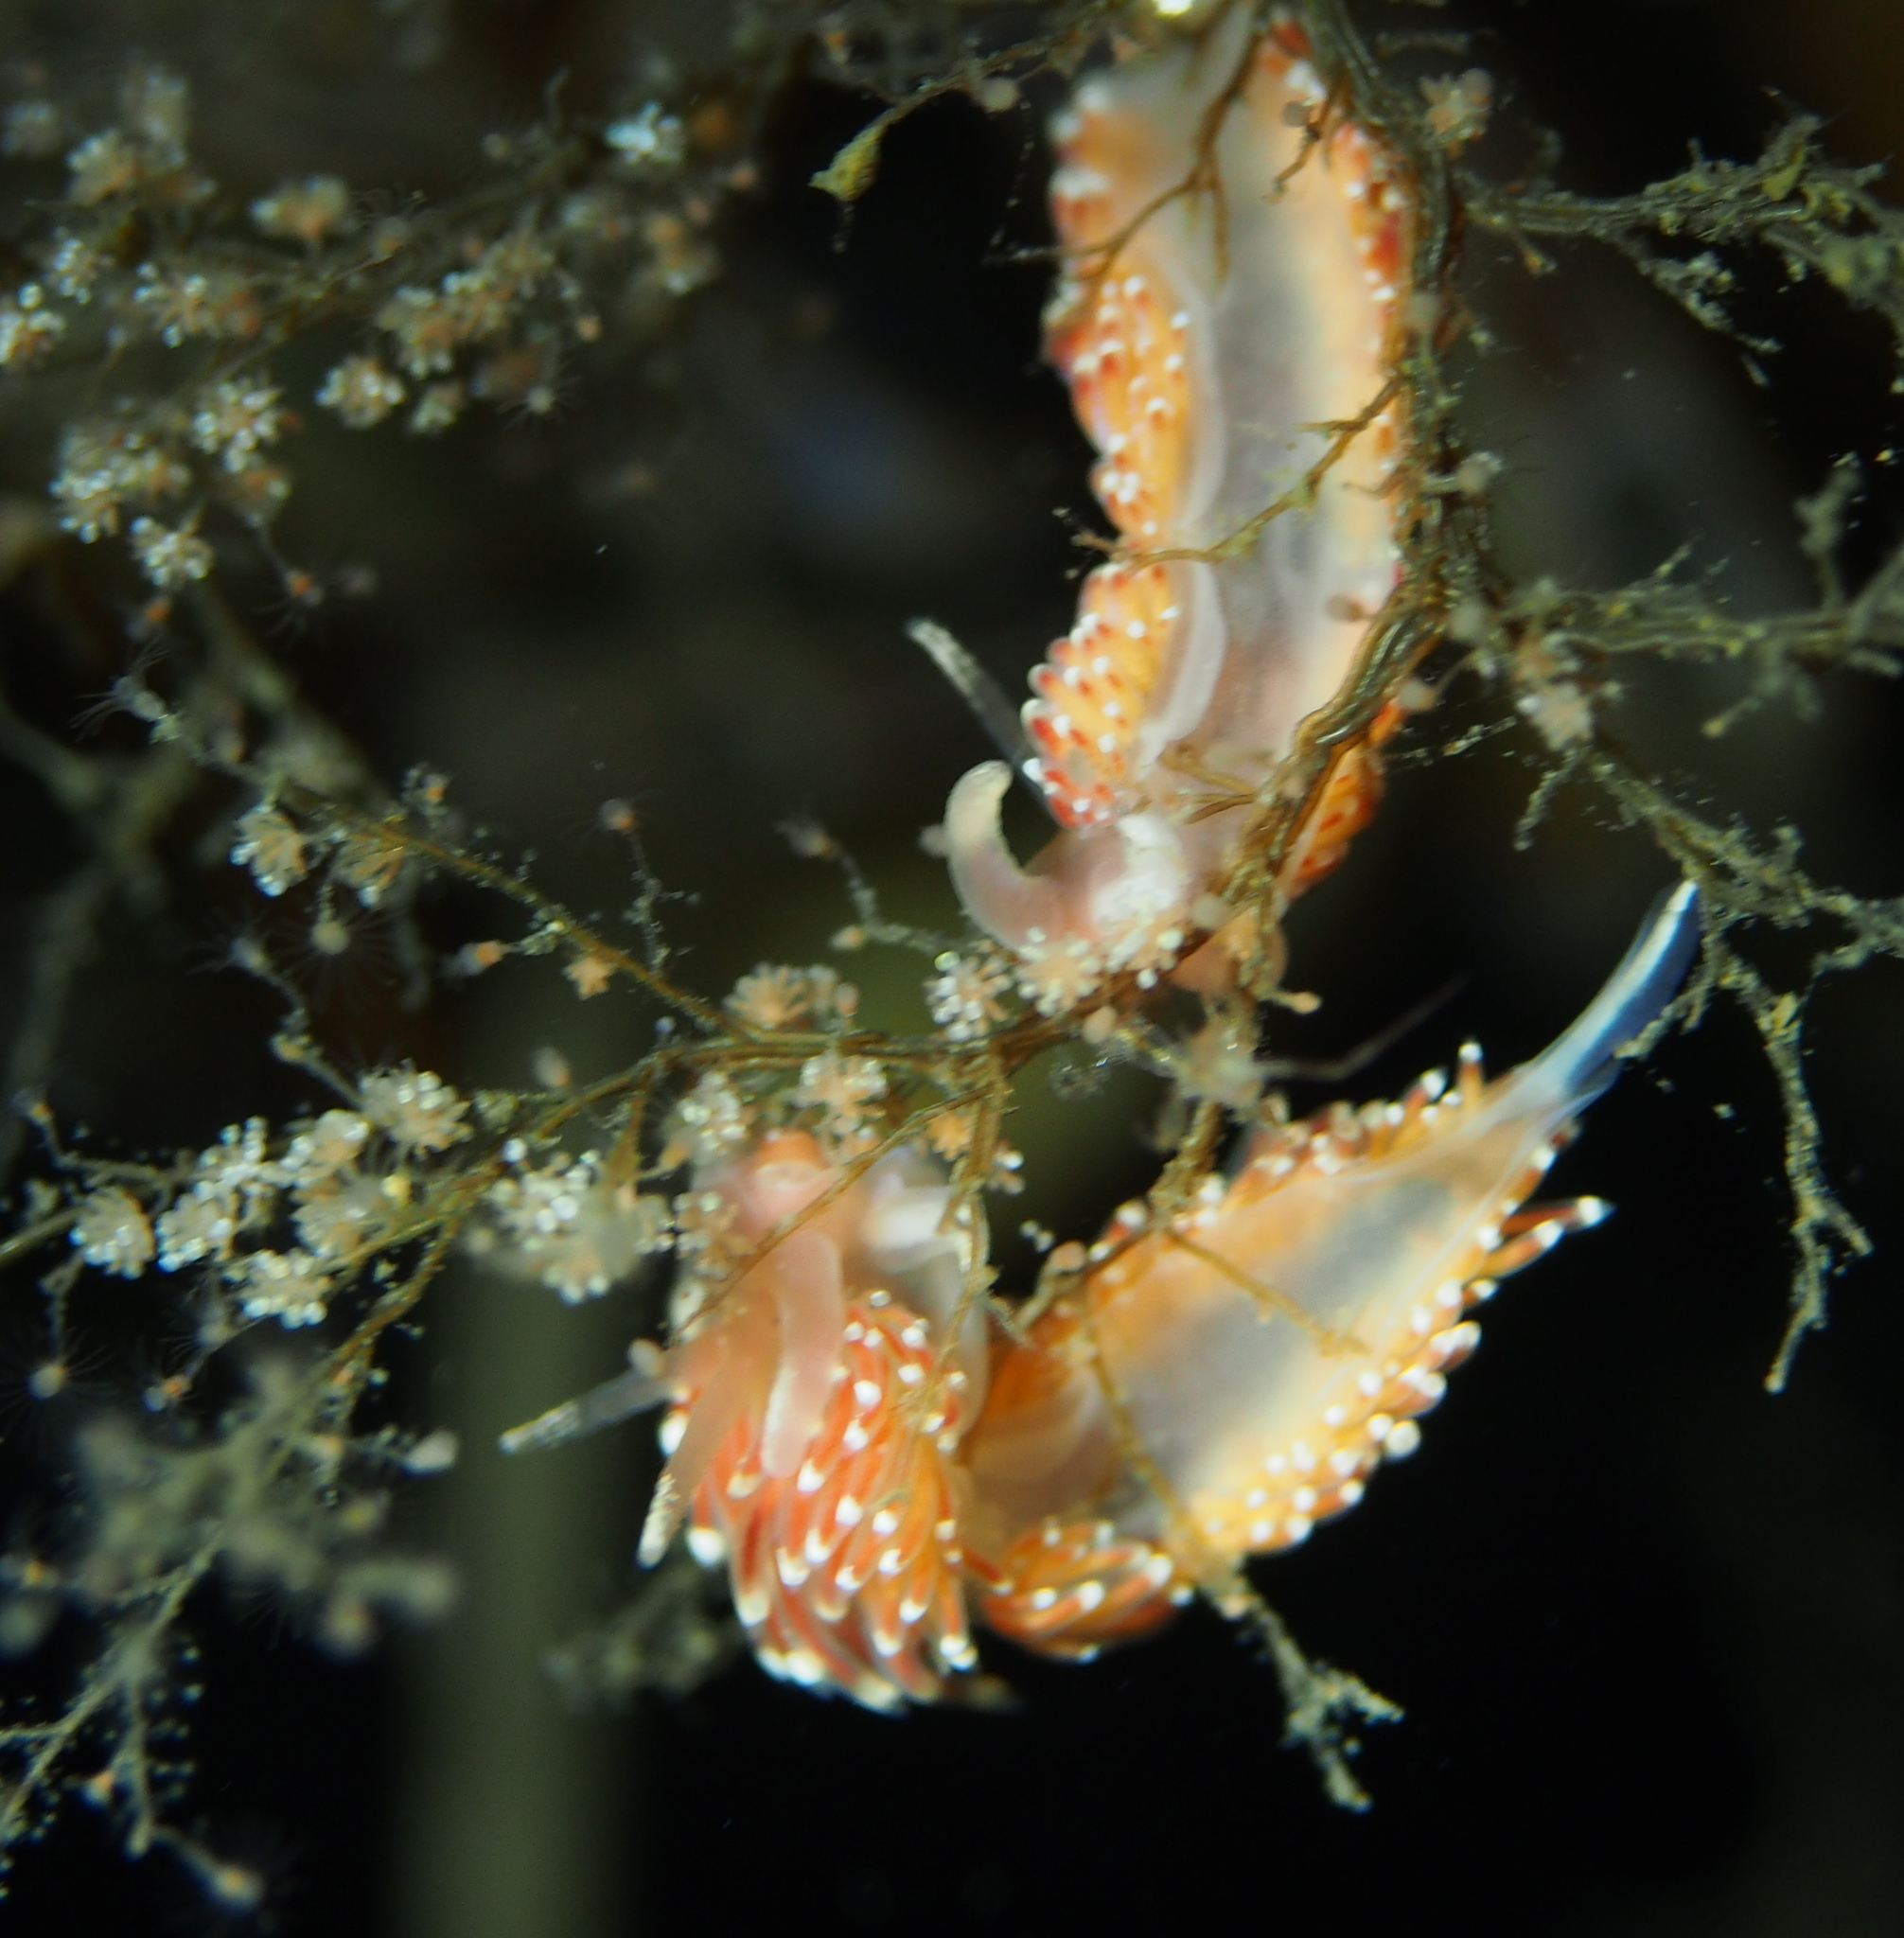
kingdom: Animalia
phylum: Mollusca
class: Gastropoda
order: Nudibranchia
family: Facelinidae
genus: Facelina
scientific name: Facelina bostoniensis
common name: Boston facelina
